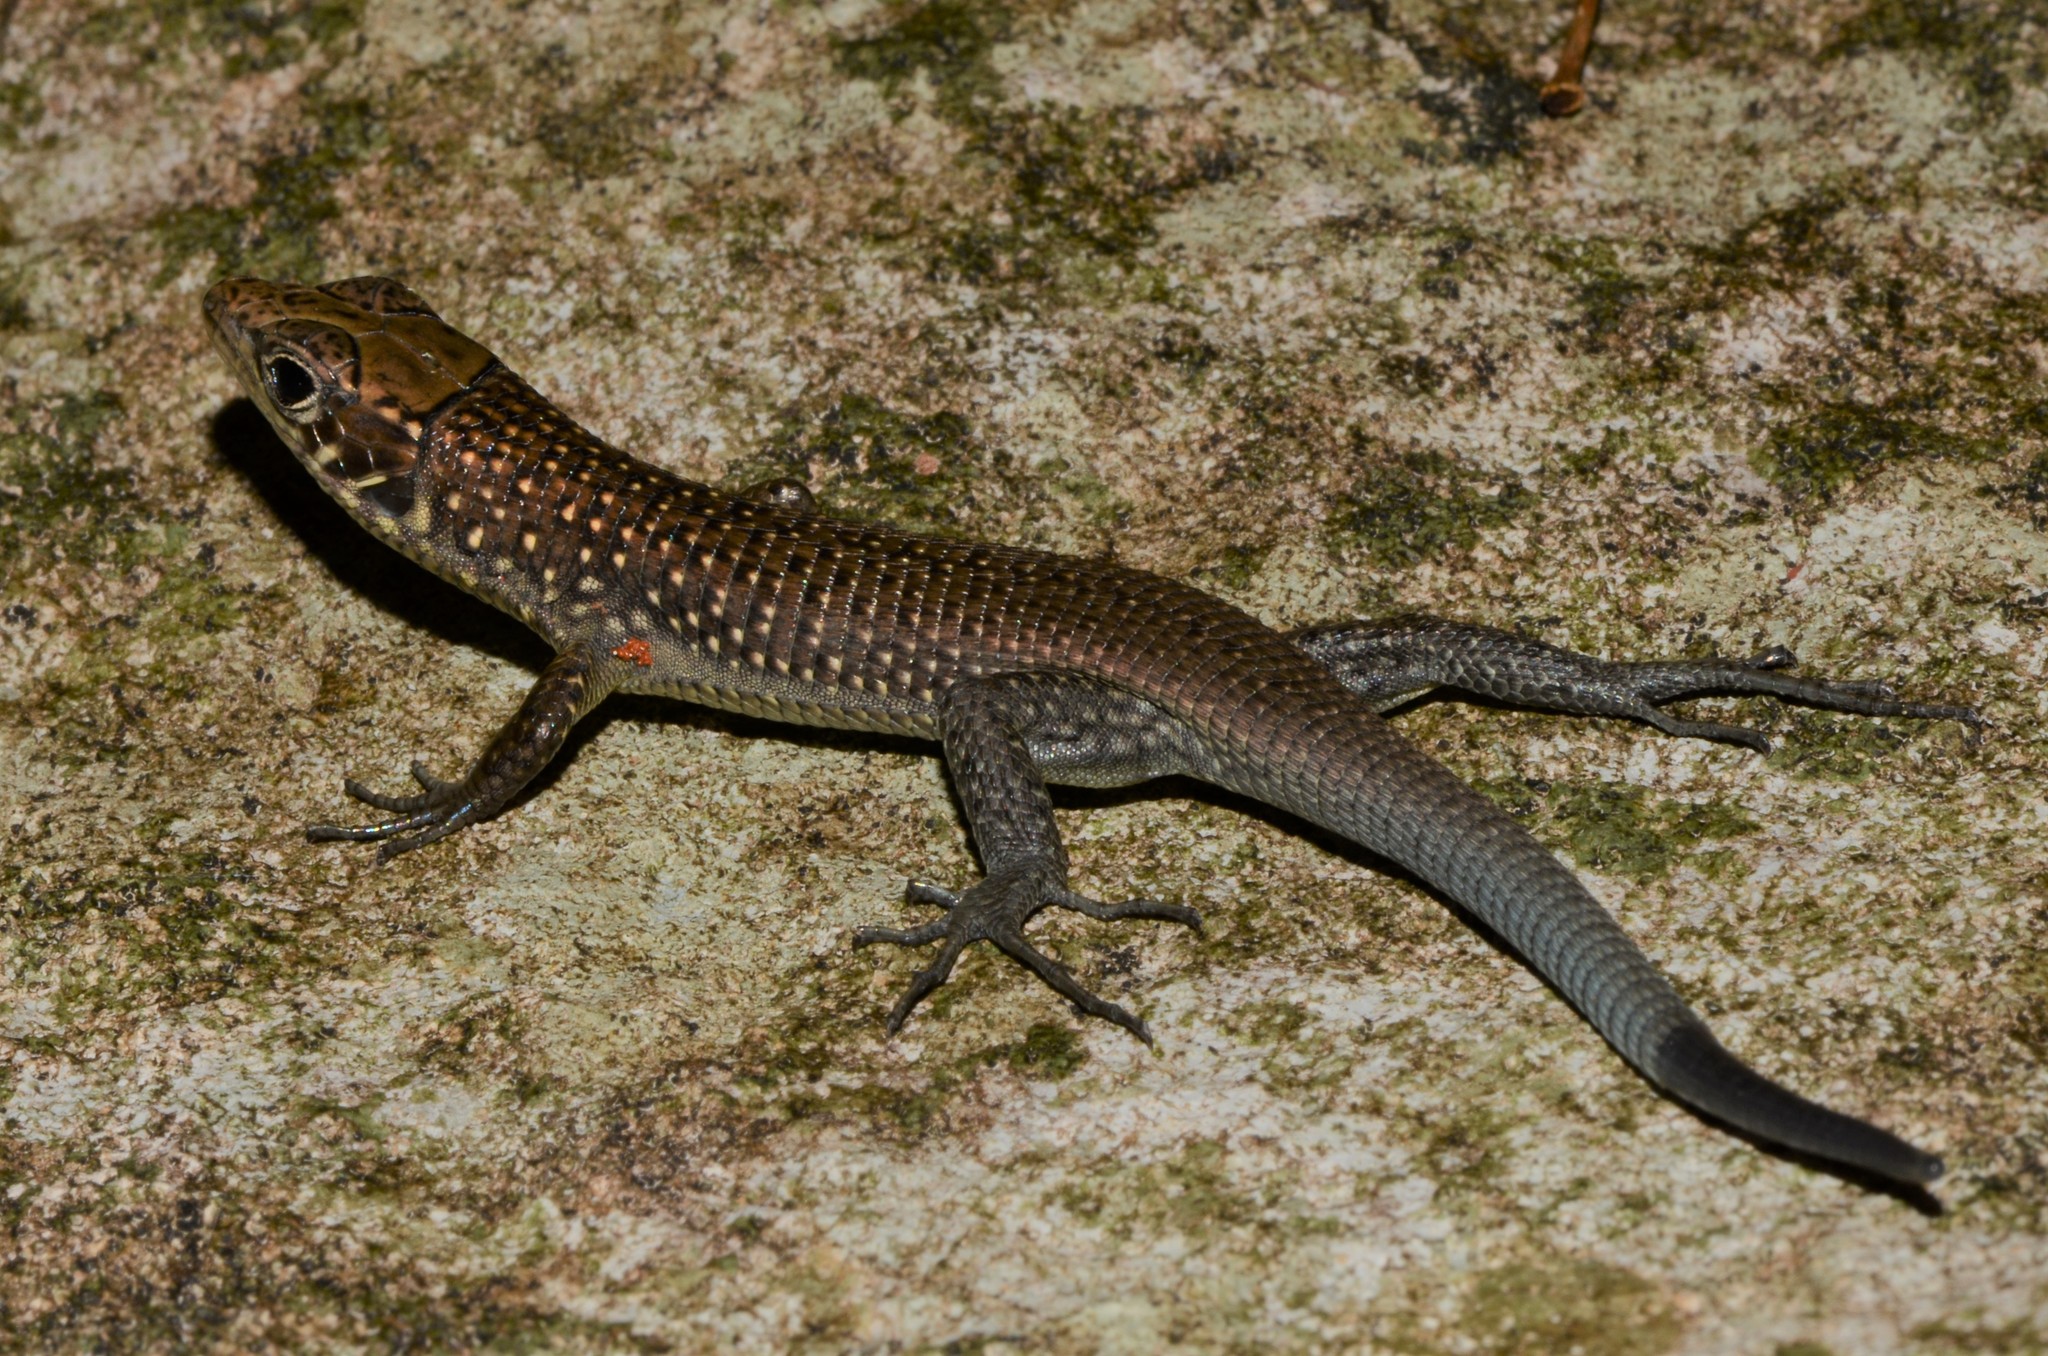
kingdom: Animalia
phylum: Chordata
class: Squamata
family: Gerrhosauridae
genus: Zonosaurus
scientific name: Zonosaurus tsingy
